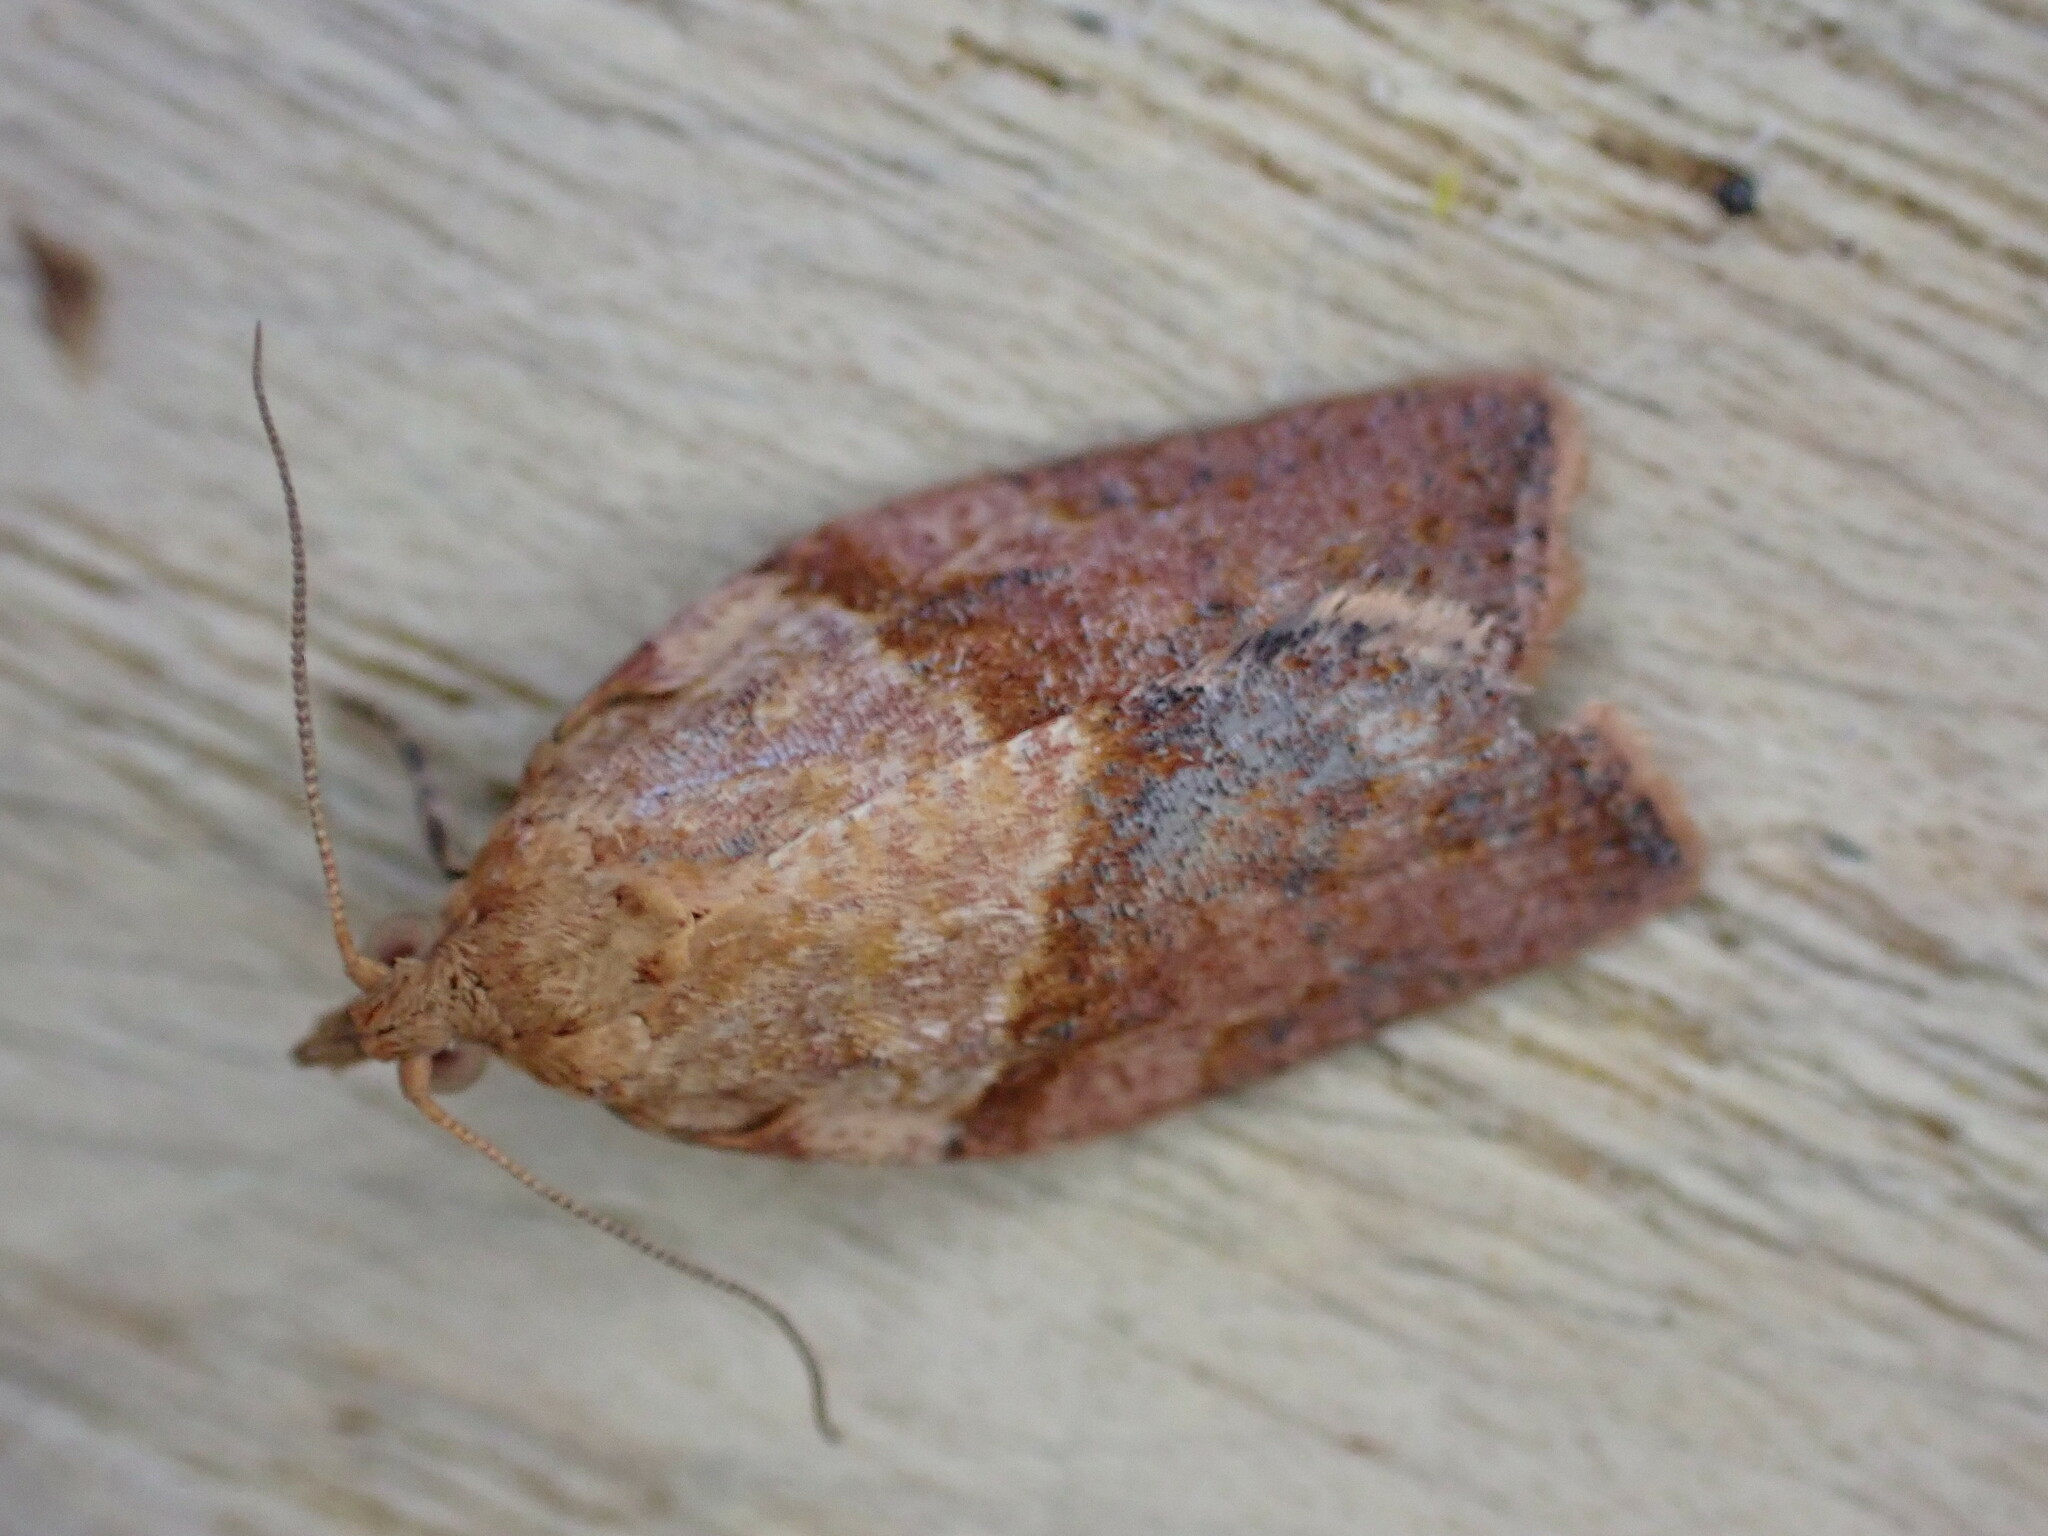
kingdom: Animalia
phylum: Arthropoda
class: Insecta
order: Lepidoptera
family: Tortricidae
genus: Epiphyas
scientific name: Epiphyas postvittana
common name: Light brown apple moth
